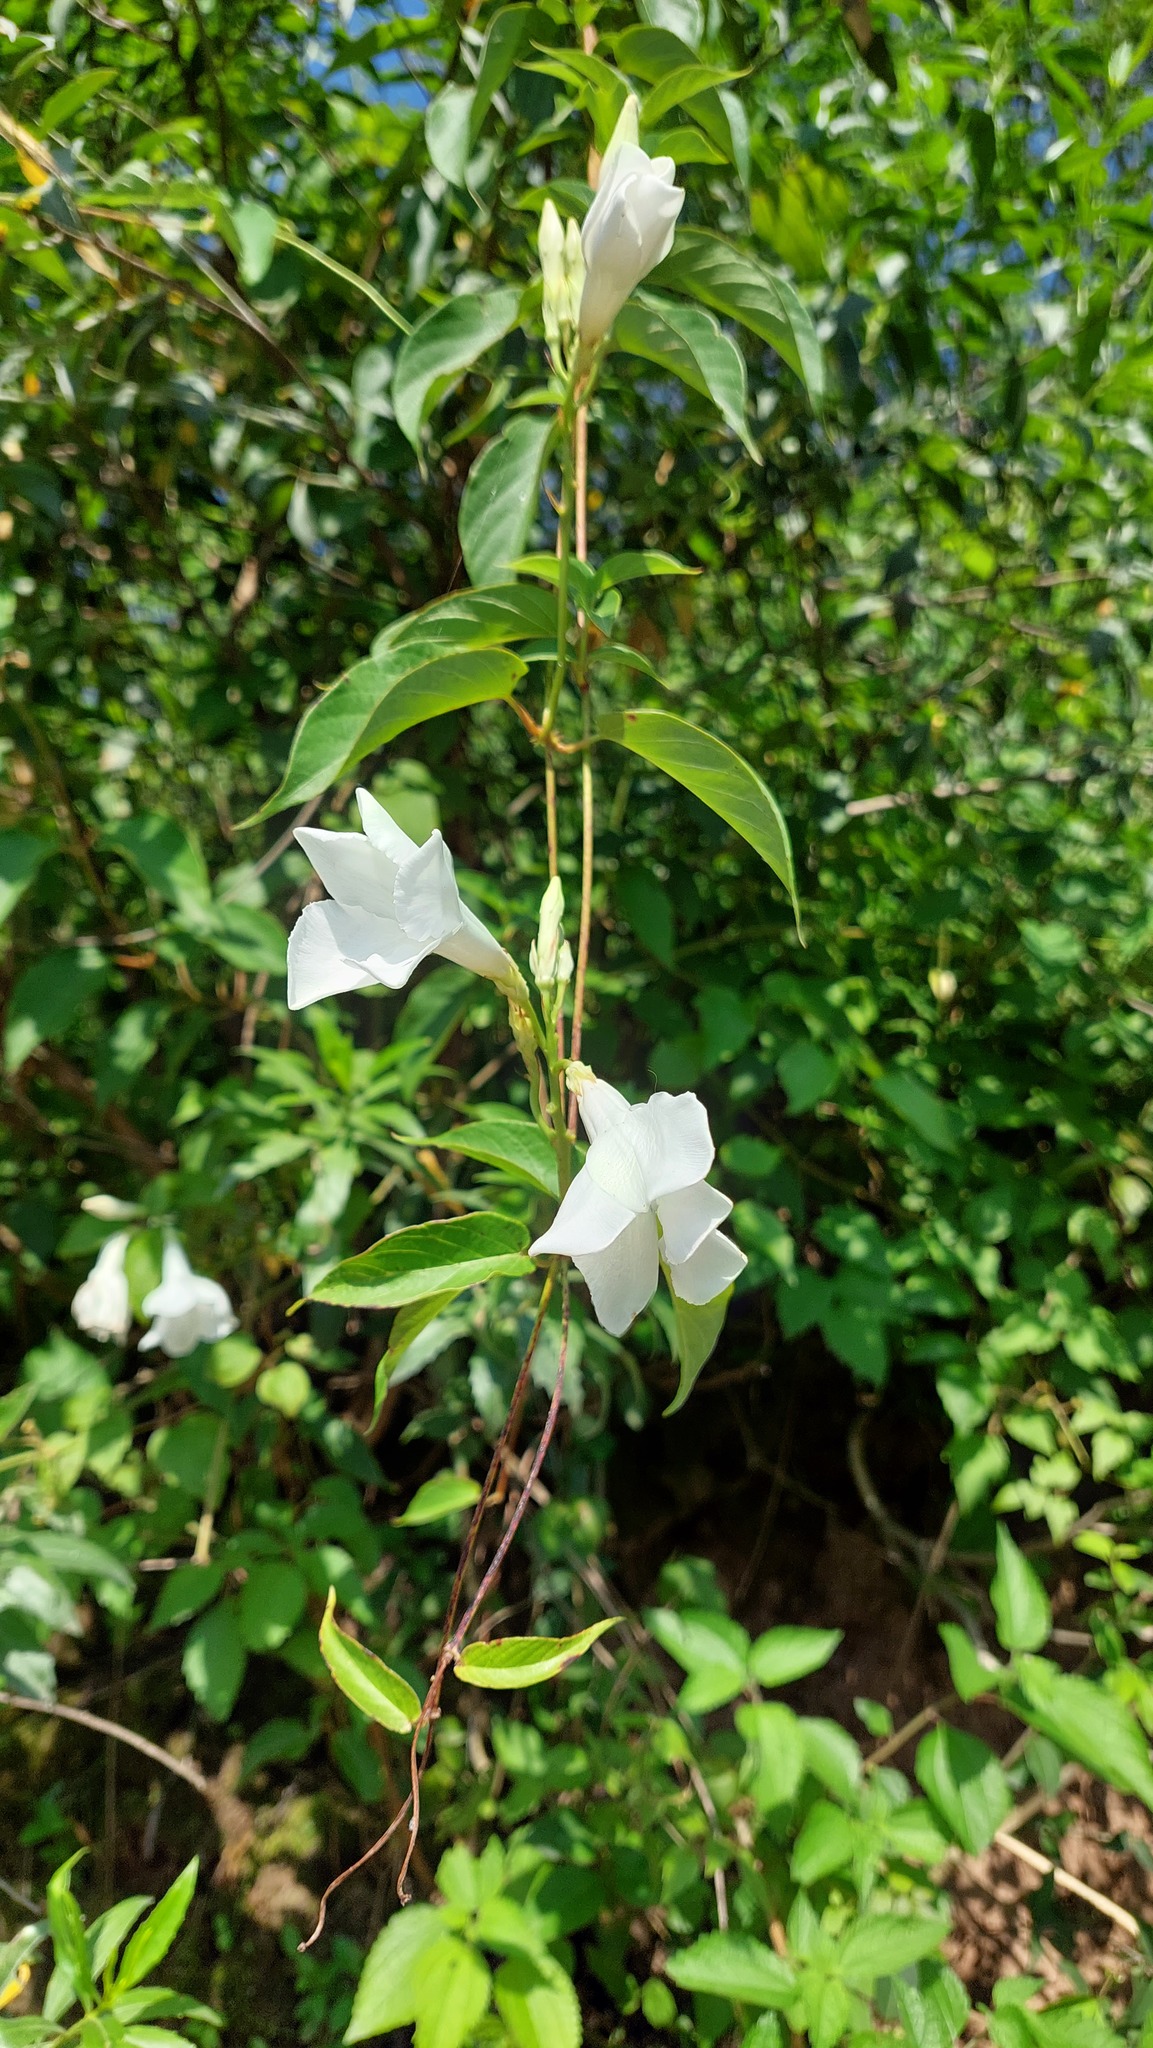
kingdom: Plantae
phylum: Tracheophyta
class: Magnoliopsida
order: Gentianales
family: Apocynaceae
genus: Mandevilla
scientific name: Mandevilla laxa
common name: Chilean-jasmine
